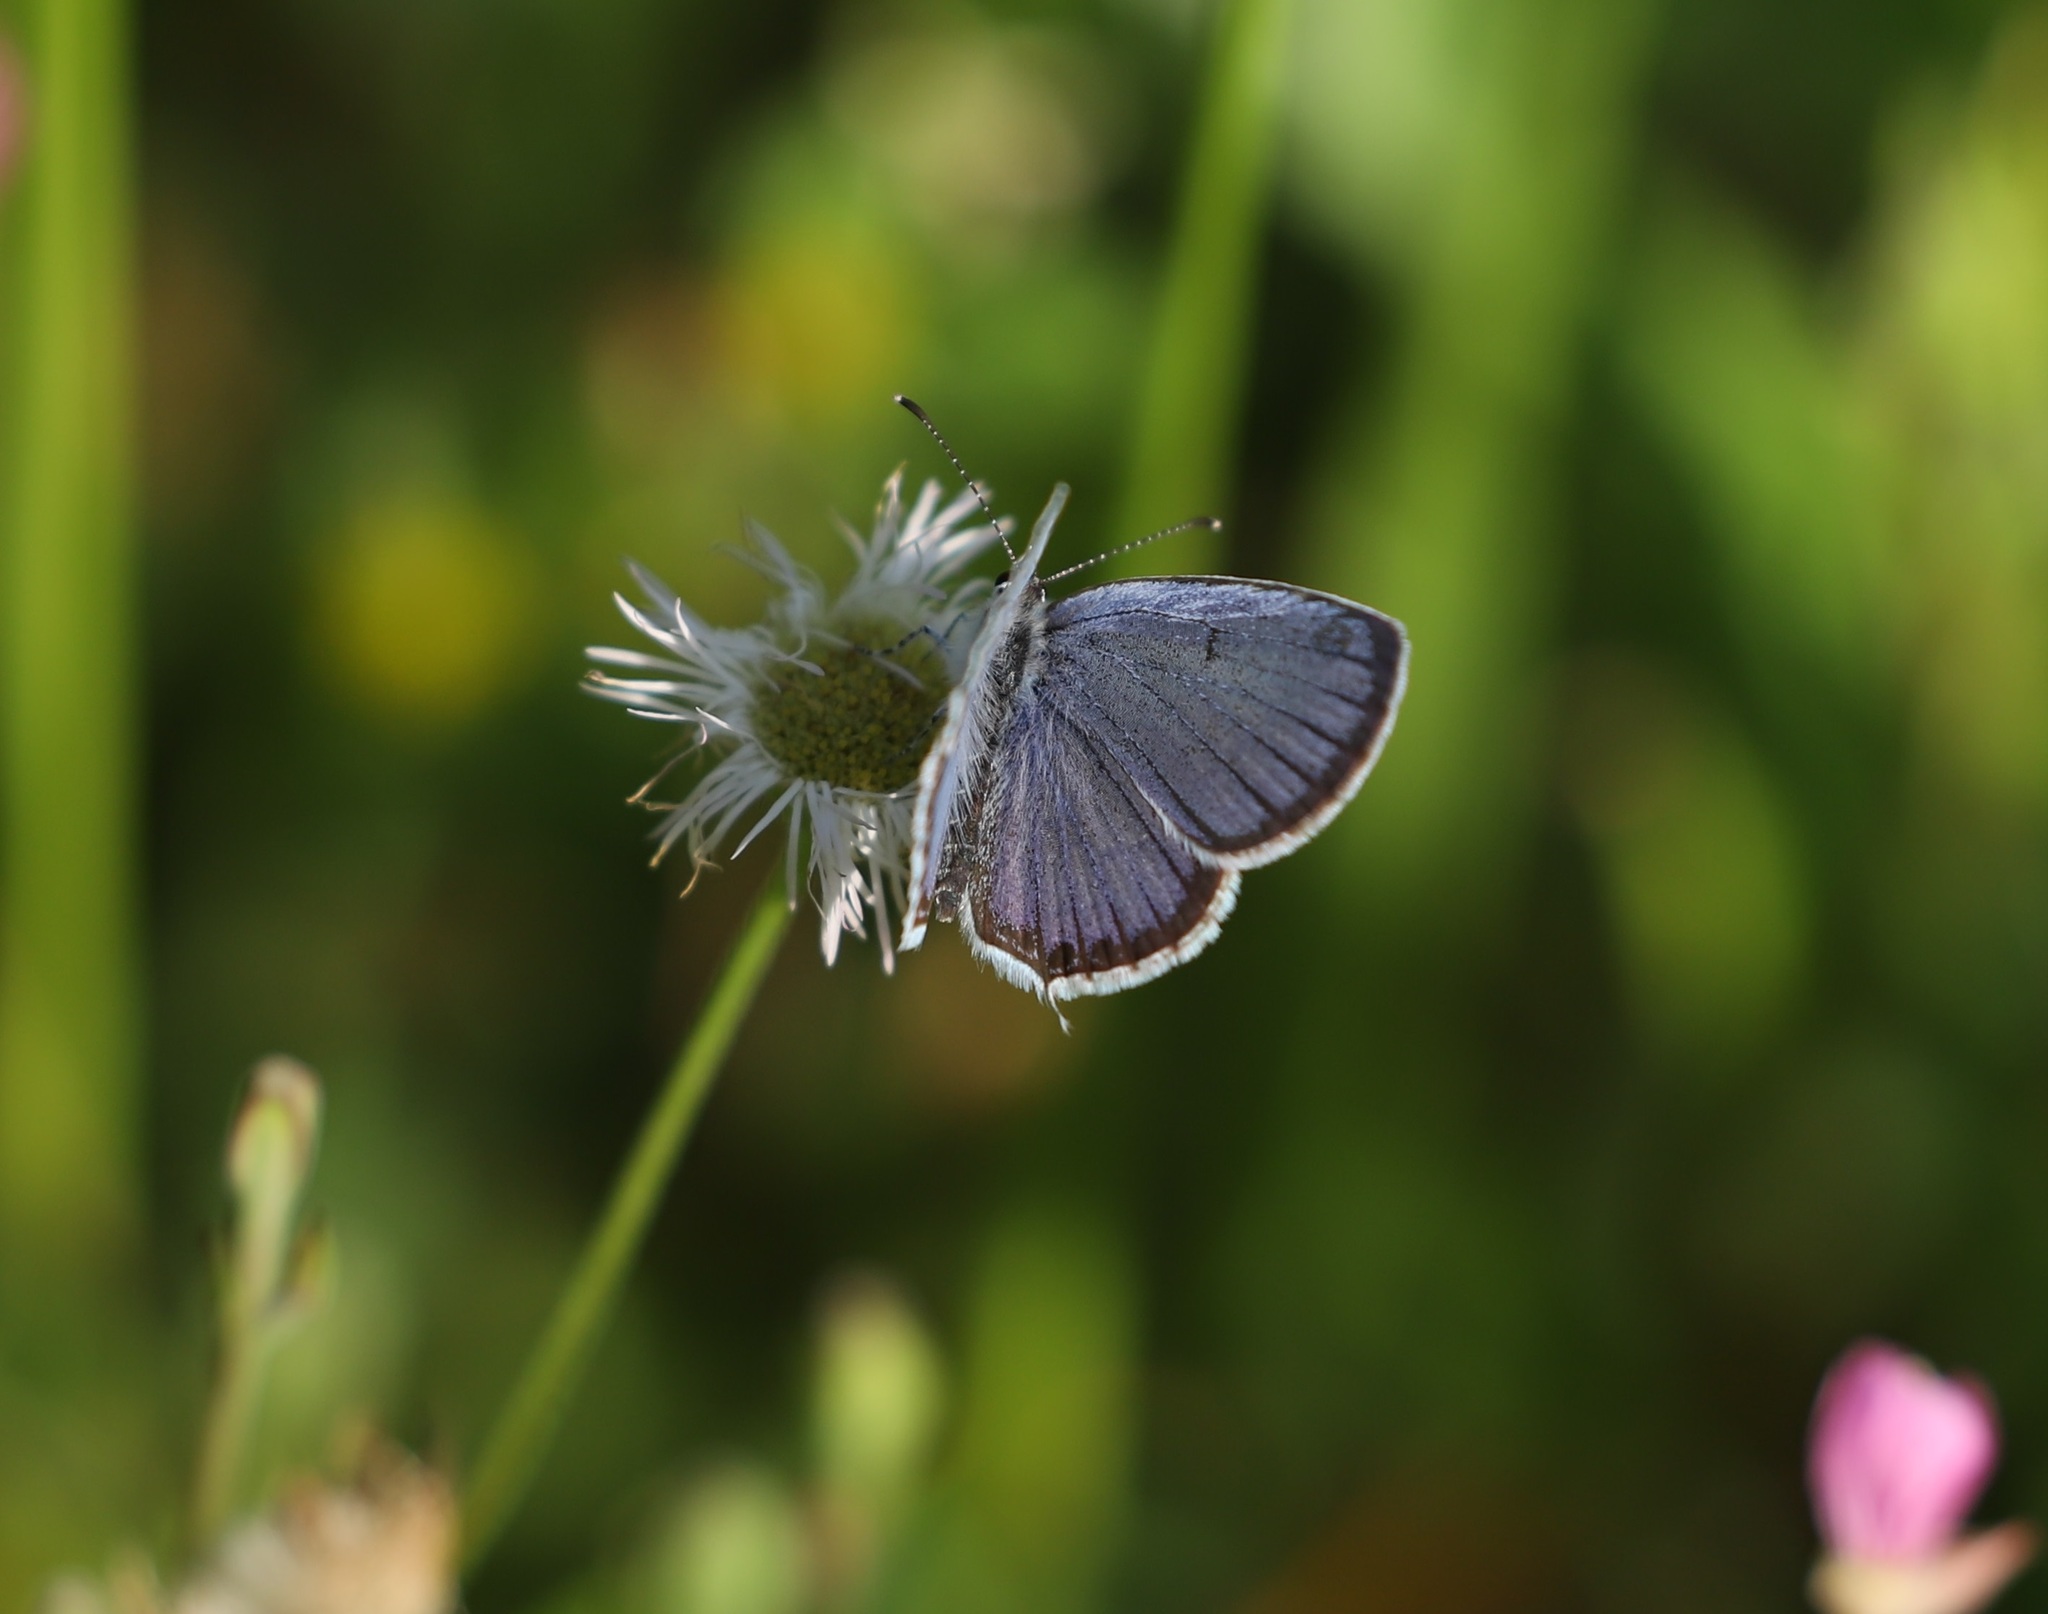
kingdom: Animalia
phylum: Arthropoda
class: Insecta
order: Lepidoptera
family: Lycaenidae
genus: Elkalyce
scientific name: Elkalyce argiades
